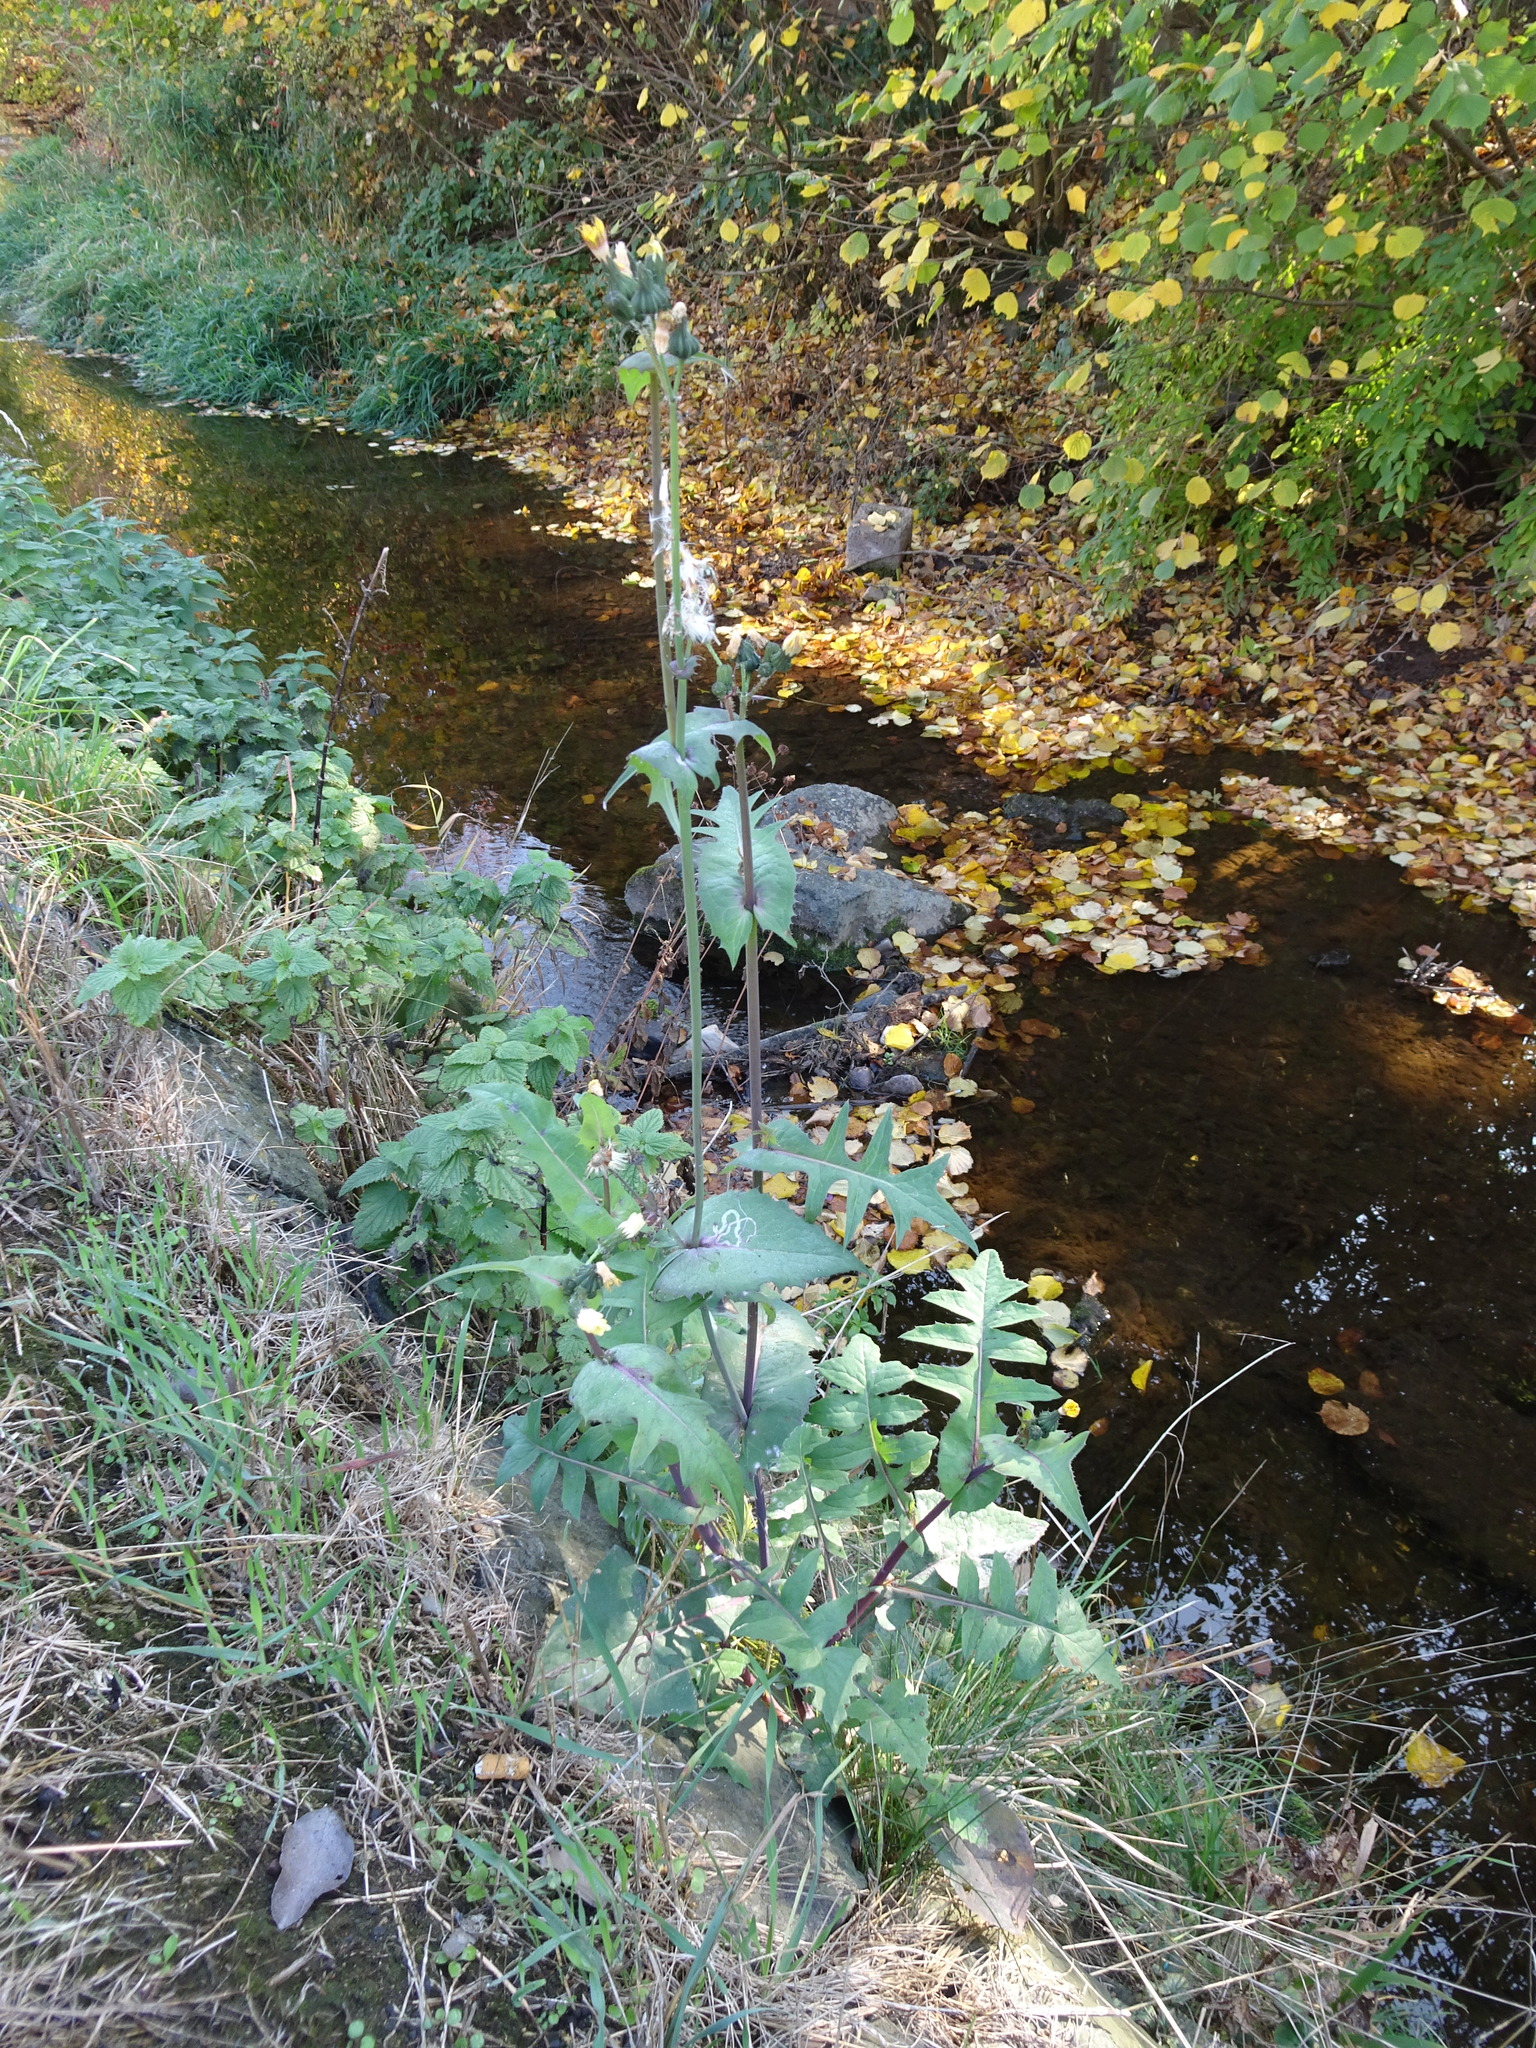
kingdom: Plantae
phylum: Tracheophyta
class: Magnoliopsida
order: Asterales
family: Asteraceae
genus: Sonchus
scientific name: Sonchus oleraceus
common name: Common sowthistle
